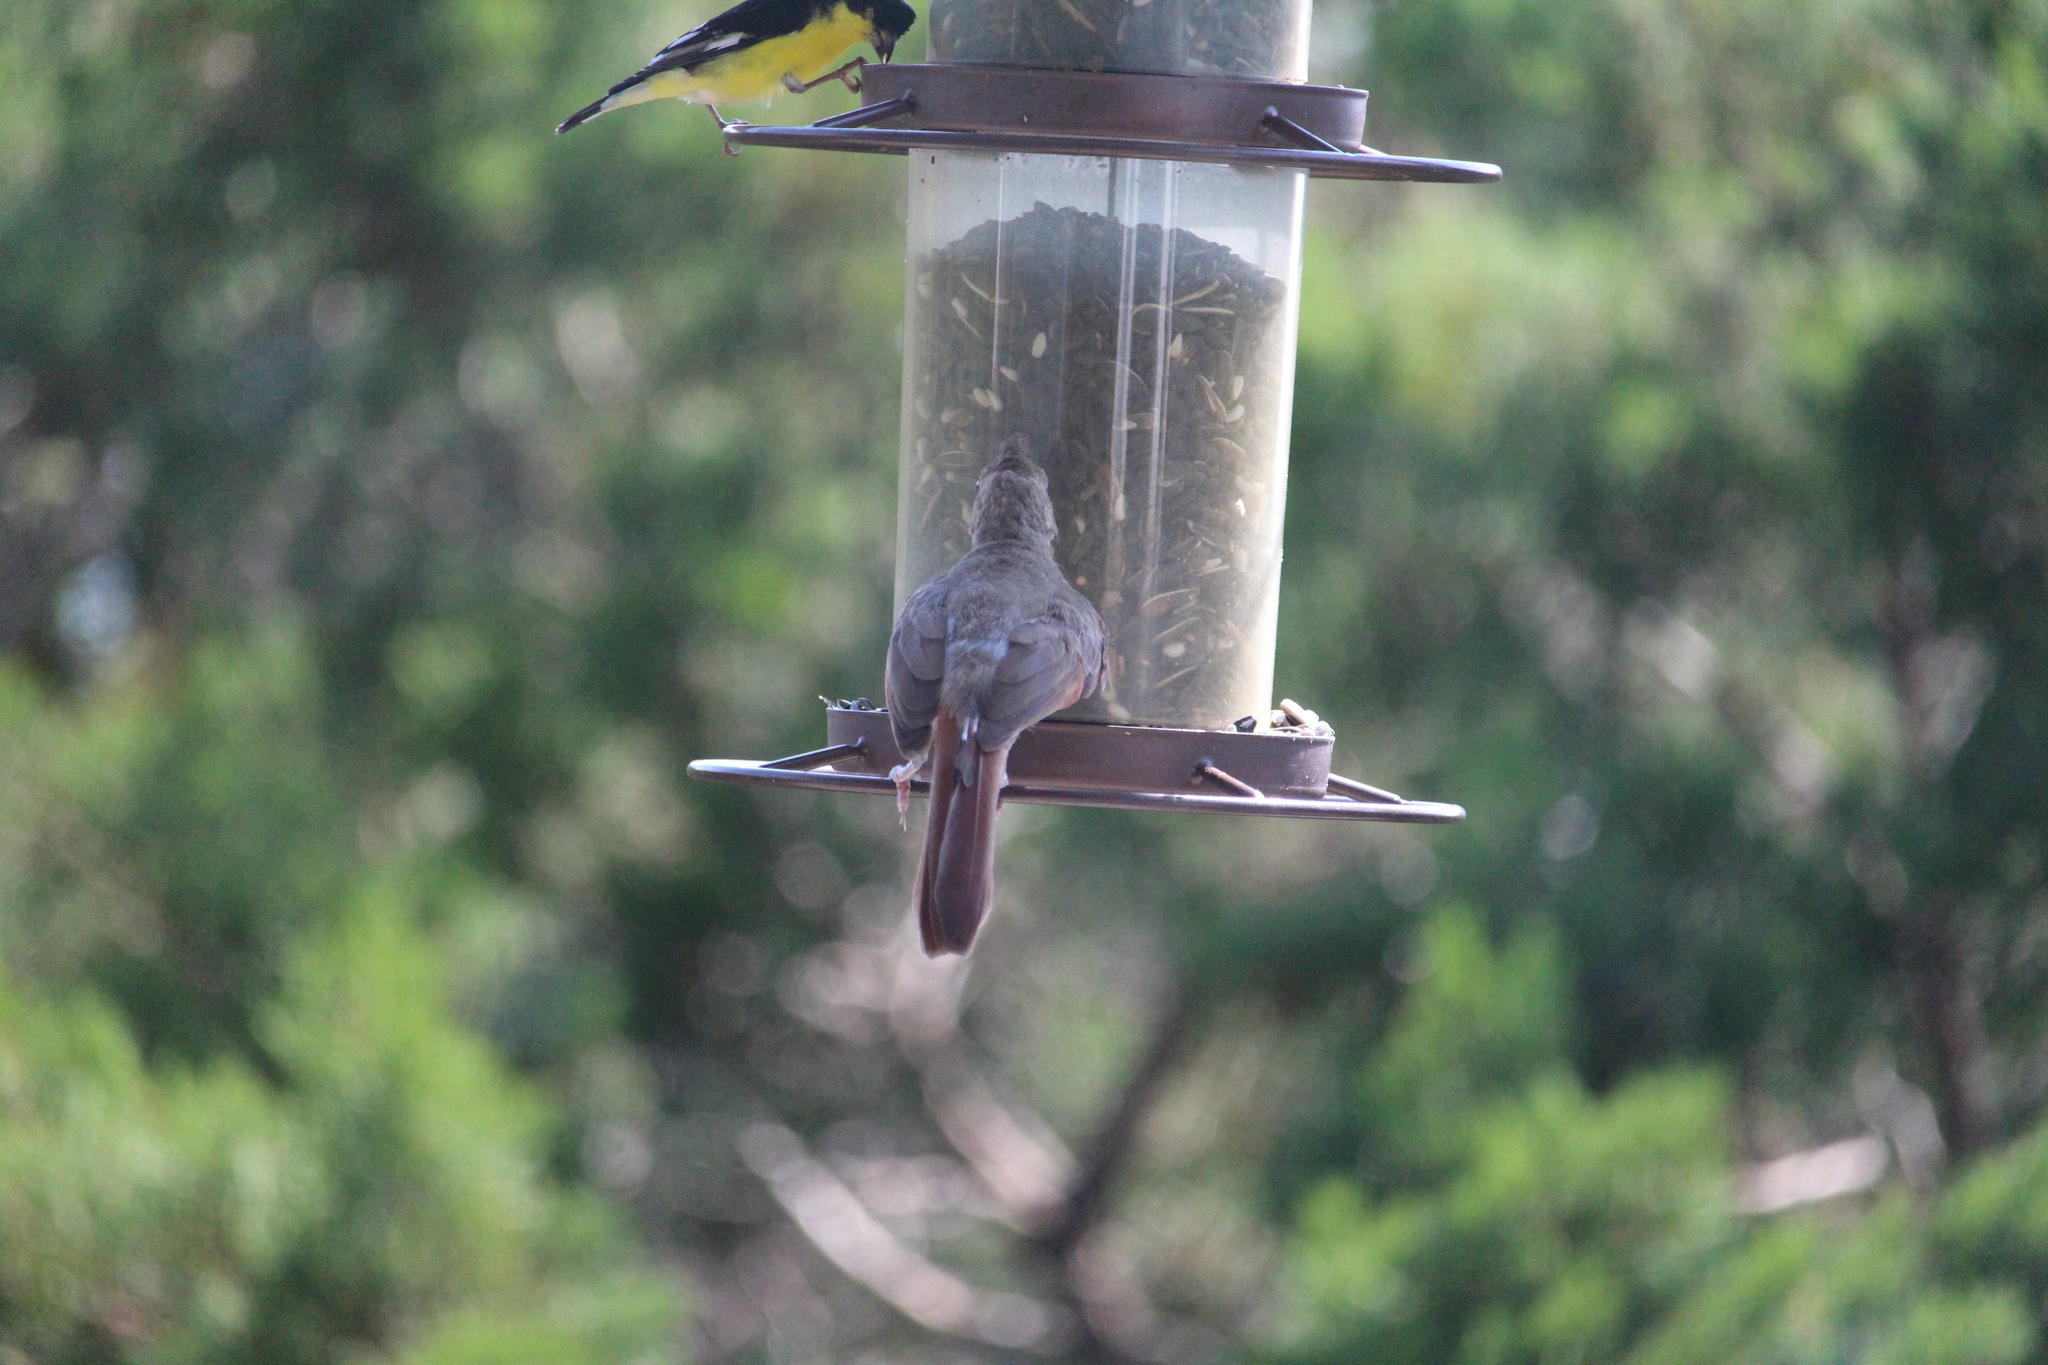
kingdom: Animalia
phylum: Chordata
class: Aves
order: Passeriformes
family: Cardinalidae
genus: Cardinalis
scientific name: Cardinalis cardinalis
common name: Northern cardinal
